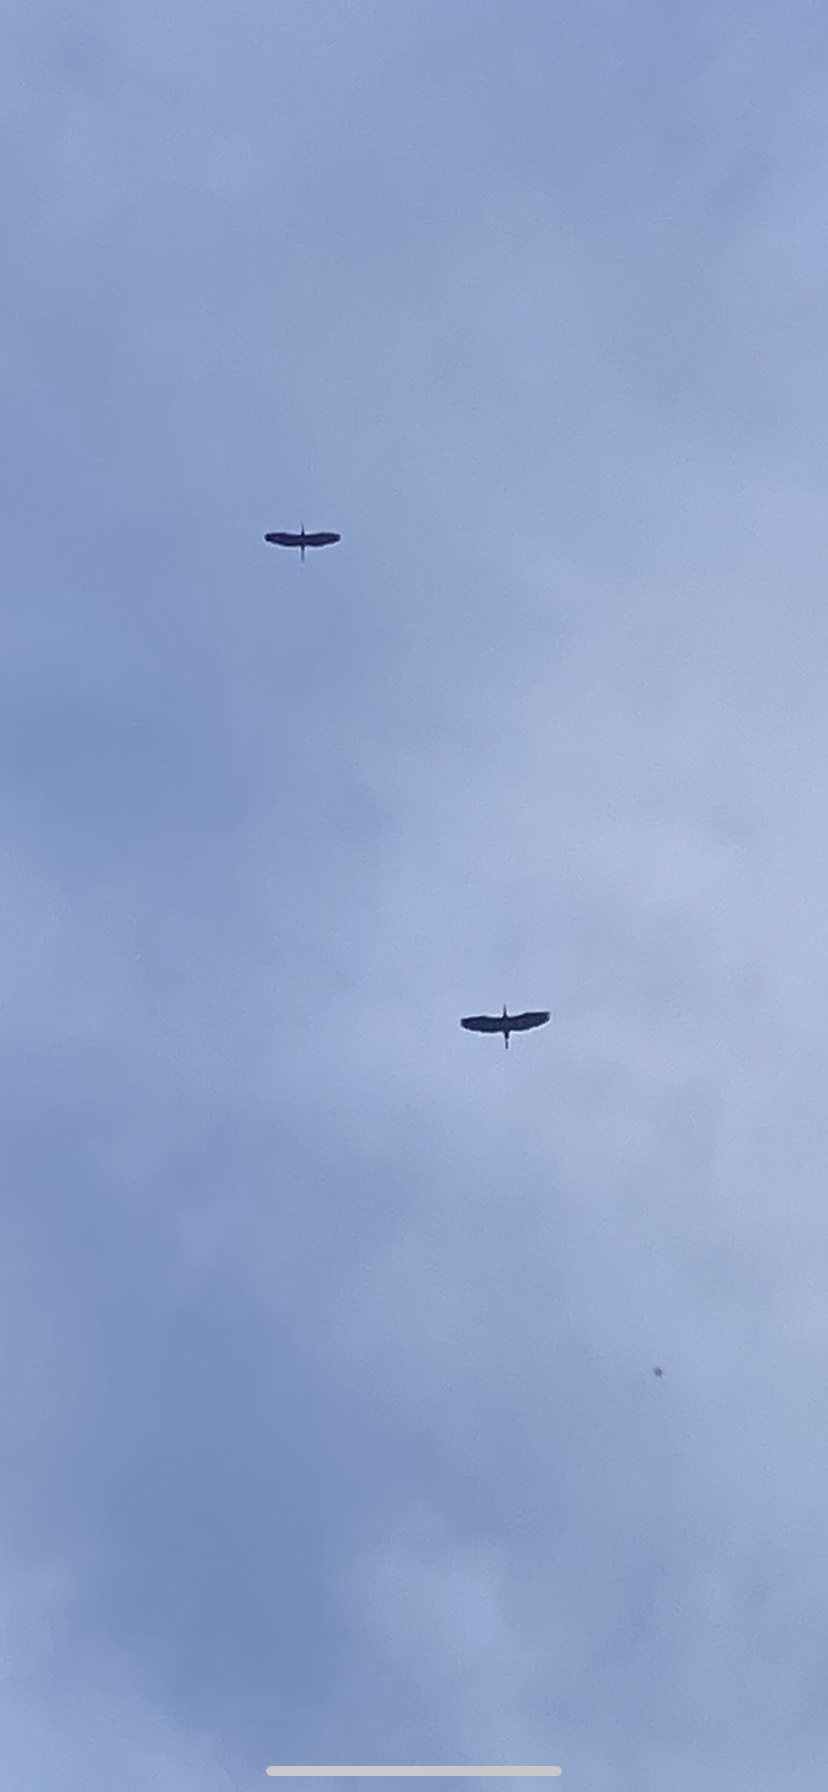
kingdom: Animalia
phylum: Chordata
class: Aves
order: Pelecaniformes
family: Ardeidae
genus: Ardea
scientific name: Ardea herodias
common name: Great blue heron
